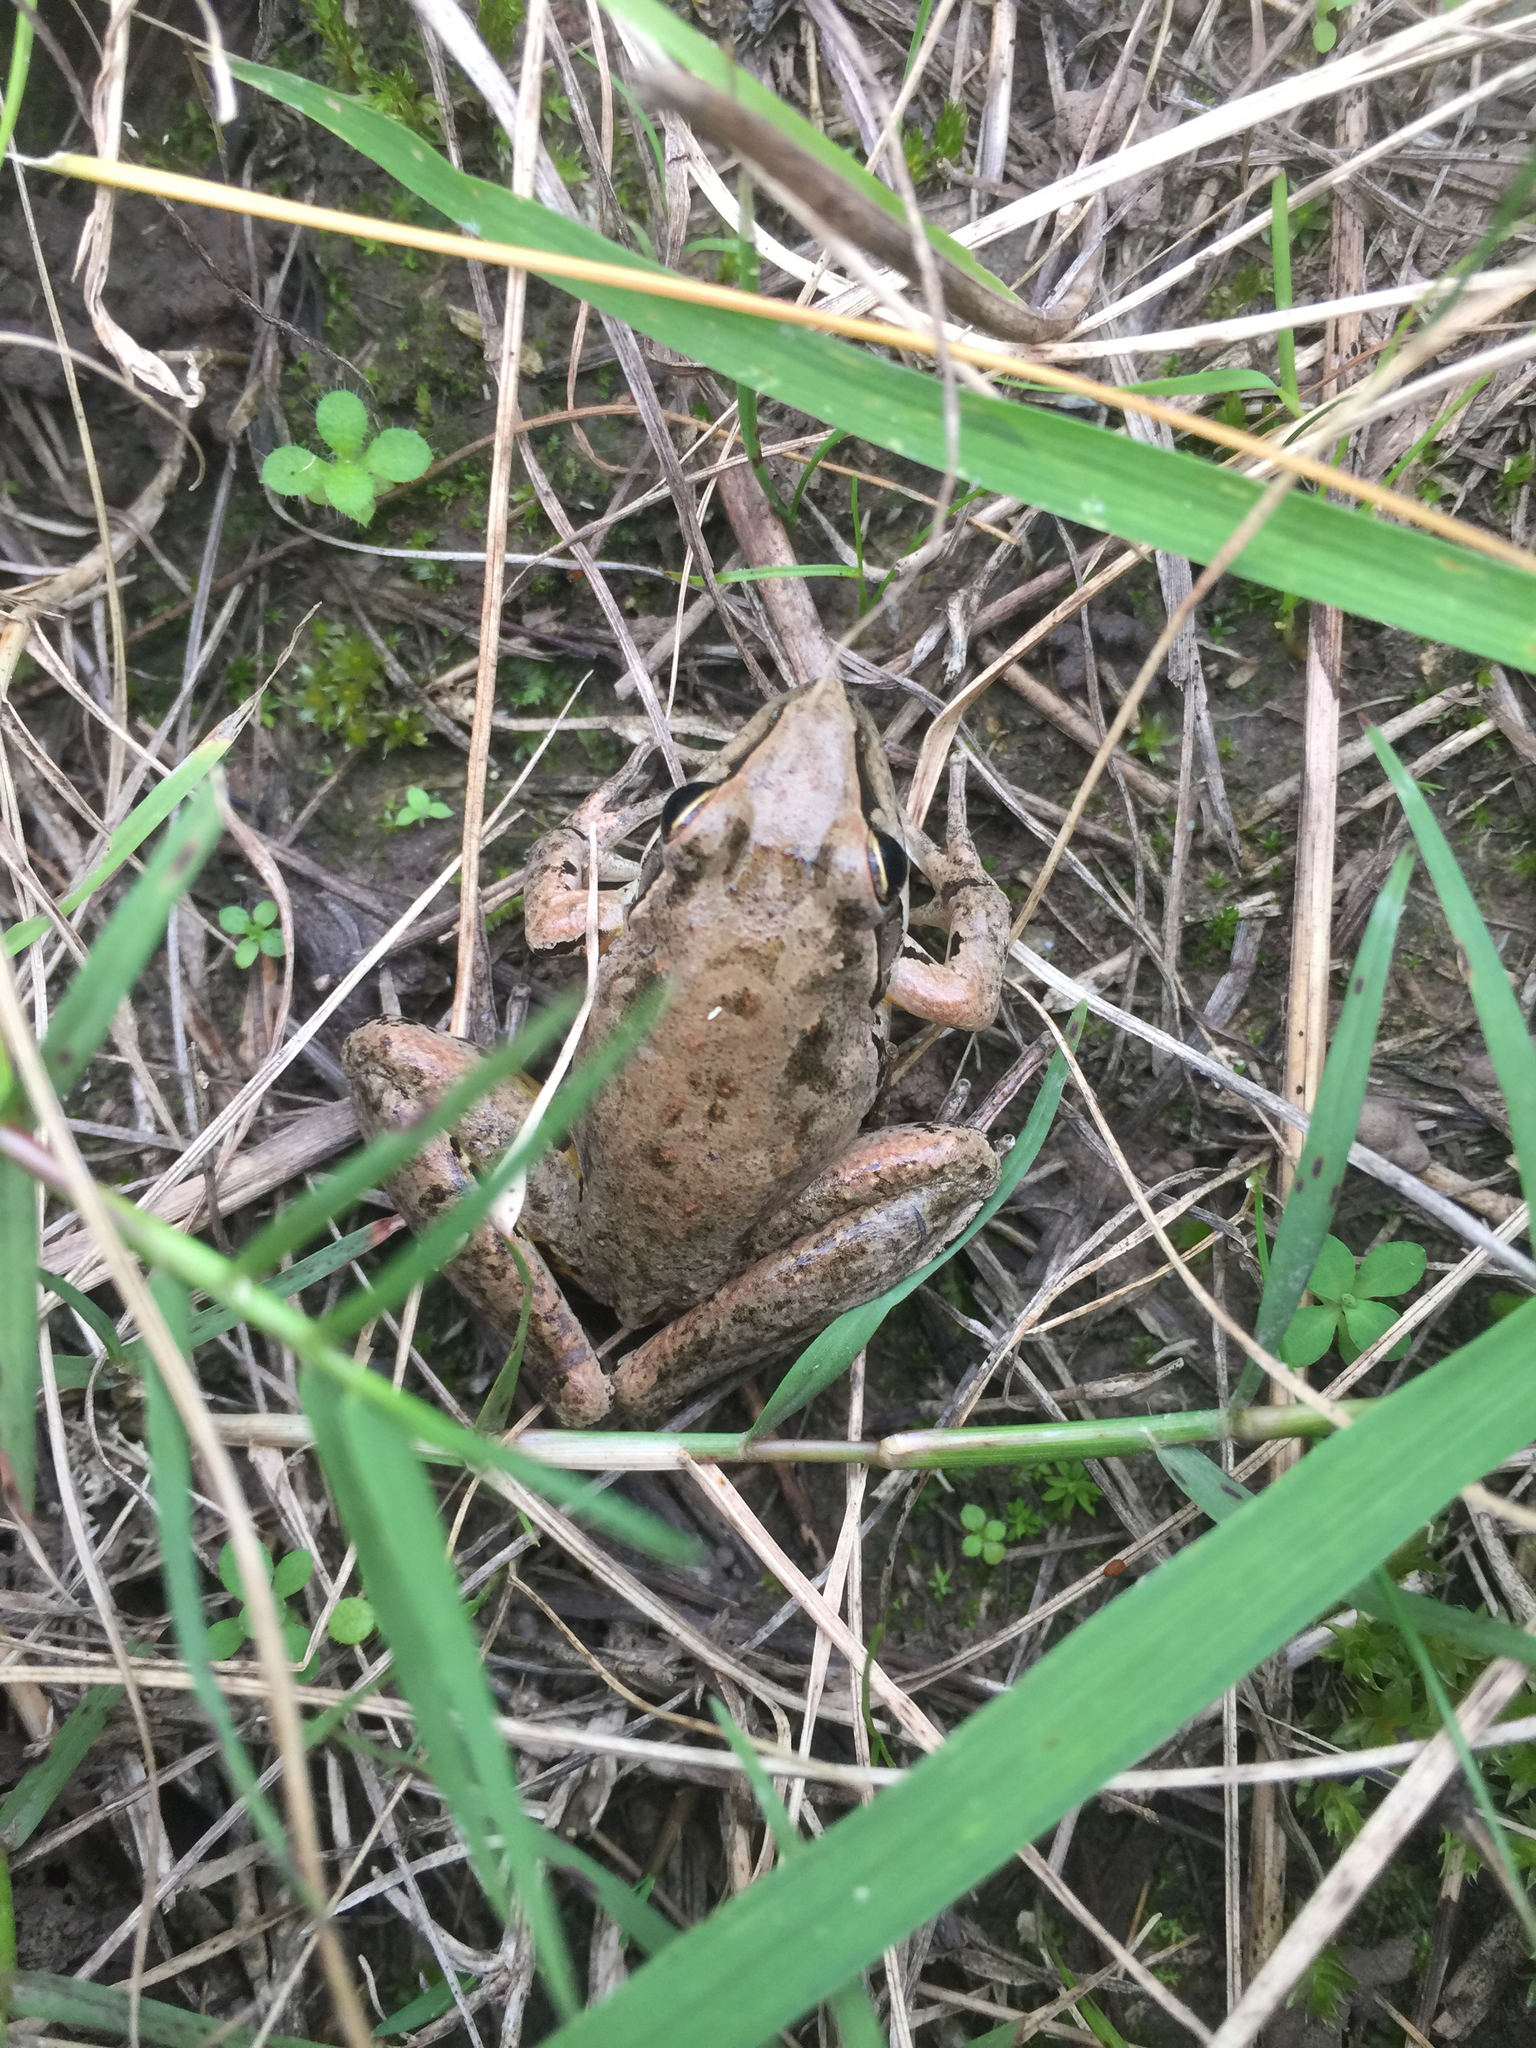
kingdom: Animalia
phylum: Chordata
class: Amphibia
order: Anura
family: Pelodryadidae
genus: Litoria
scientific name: Litoria latopalmata
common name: Broad-palmed rocket frog
